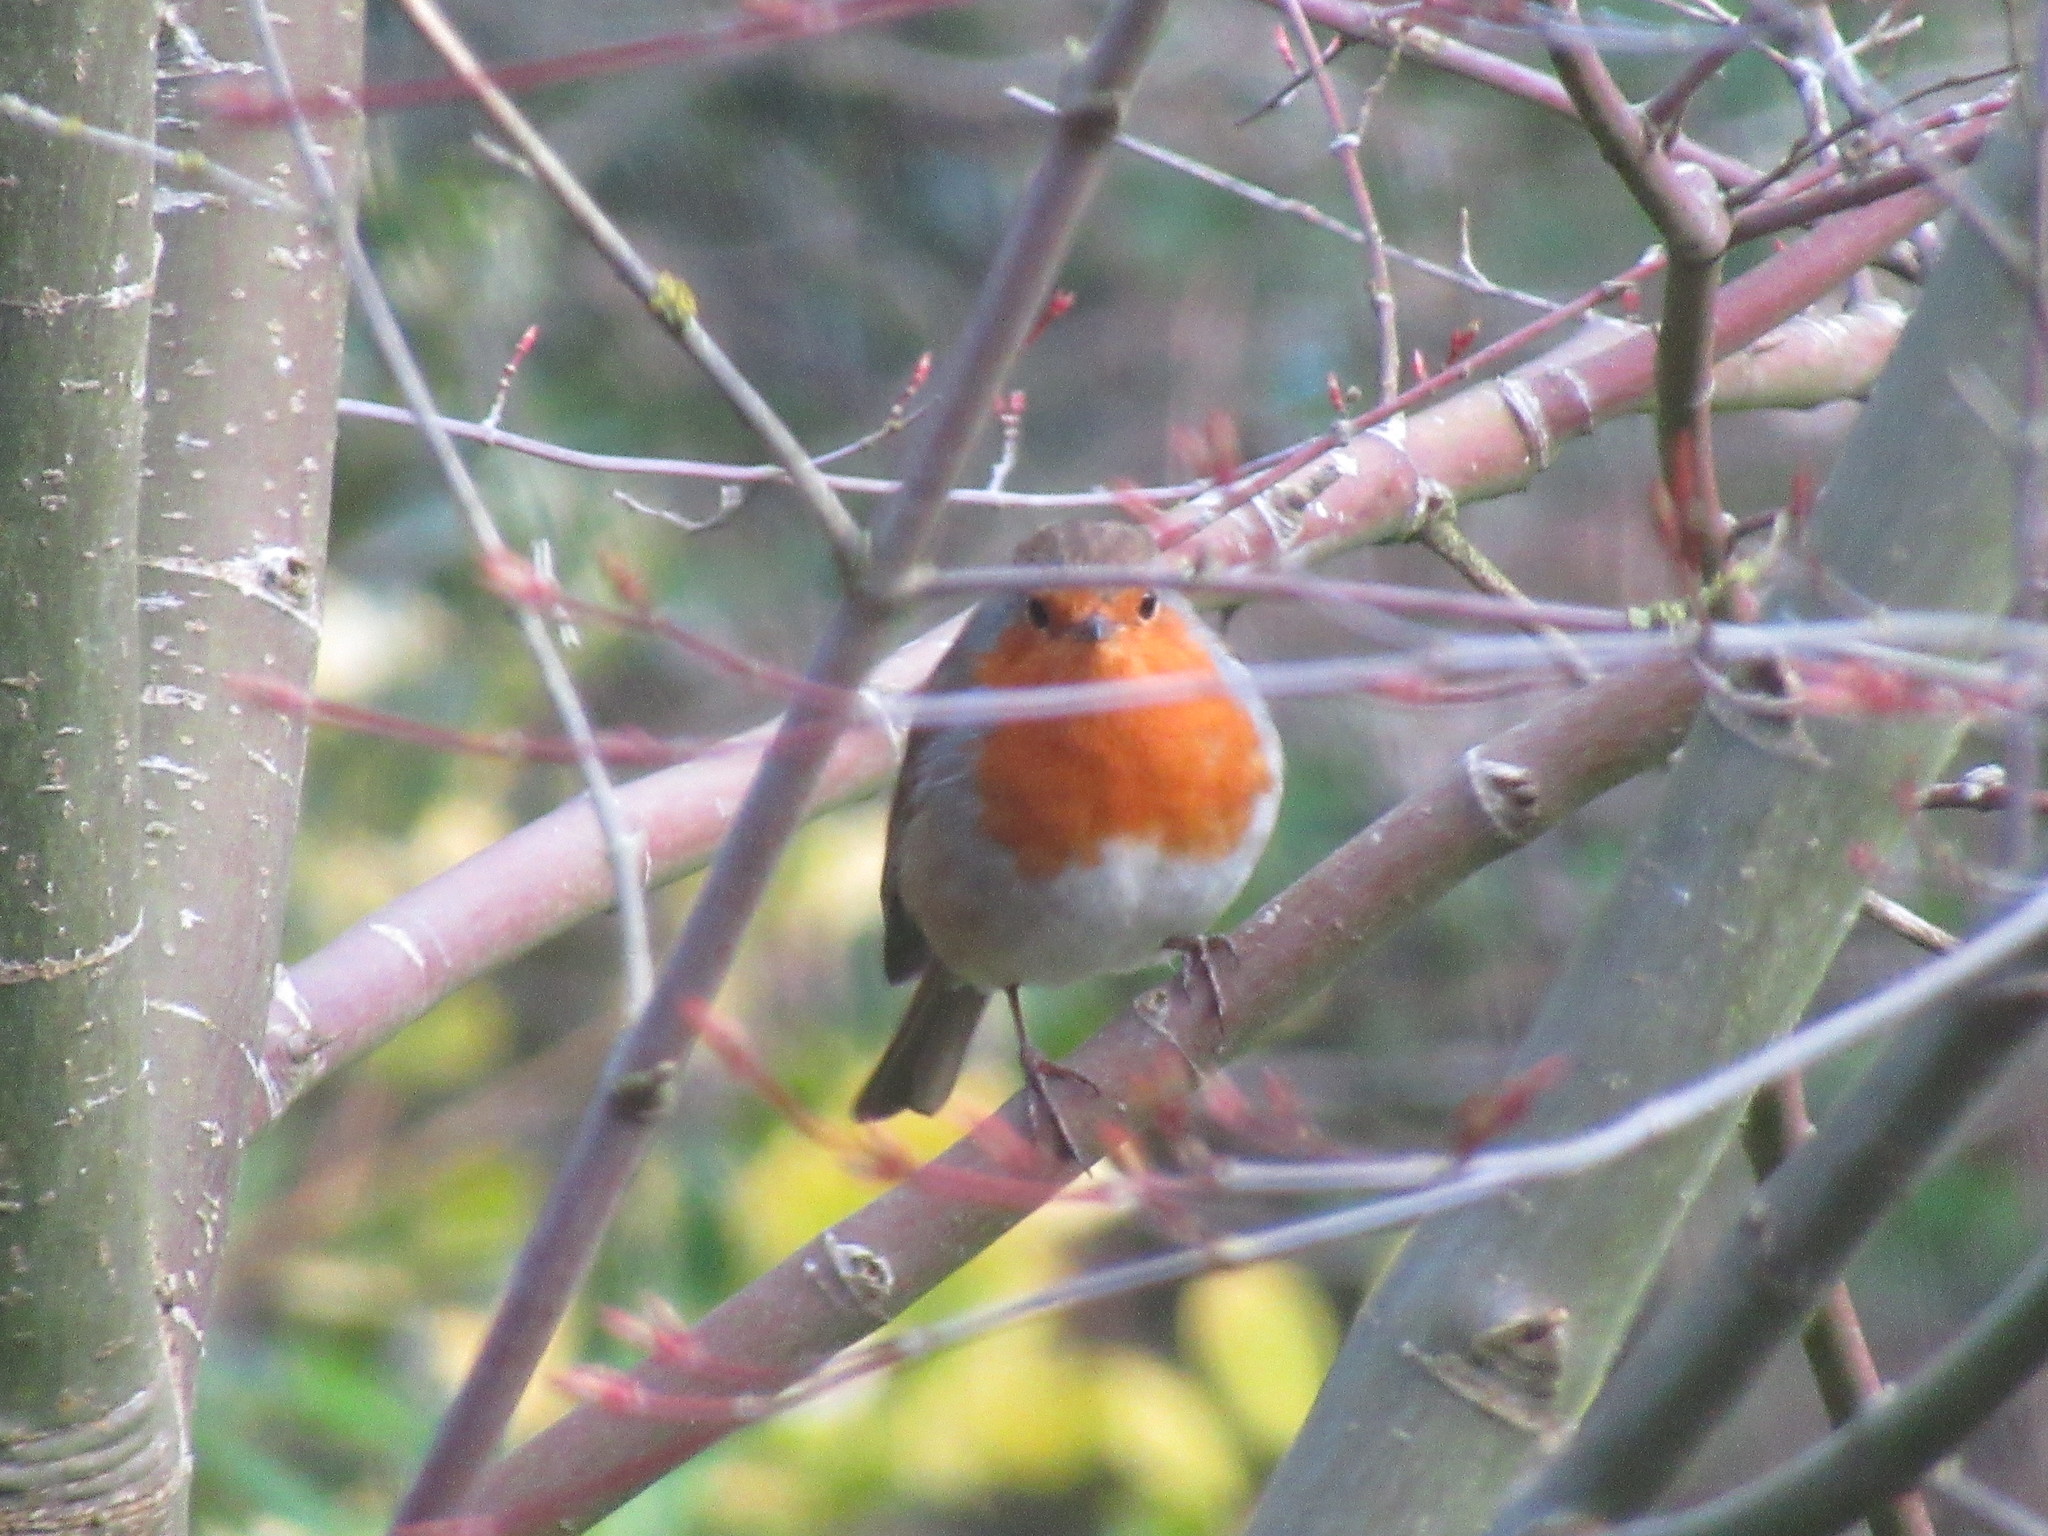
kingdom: Animalia
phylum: Chordata
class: Aves
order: Passeriformes
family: Muscicapidae
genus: Erithacus
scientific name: Erithacus rubecula
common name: European robin
